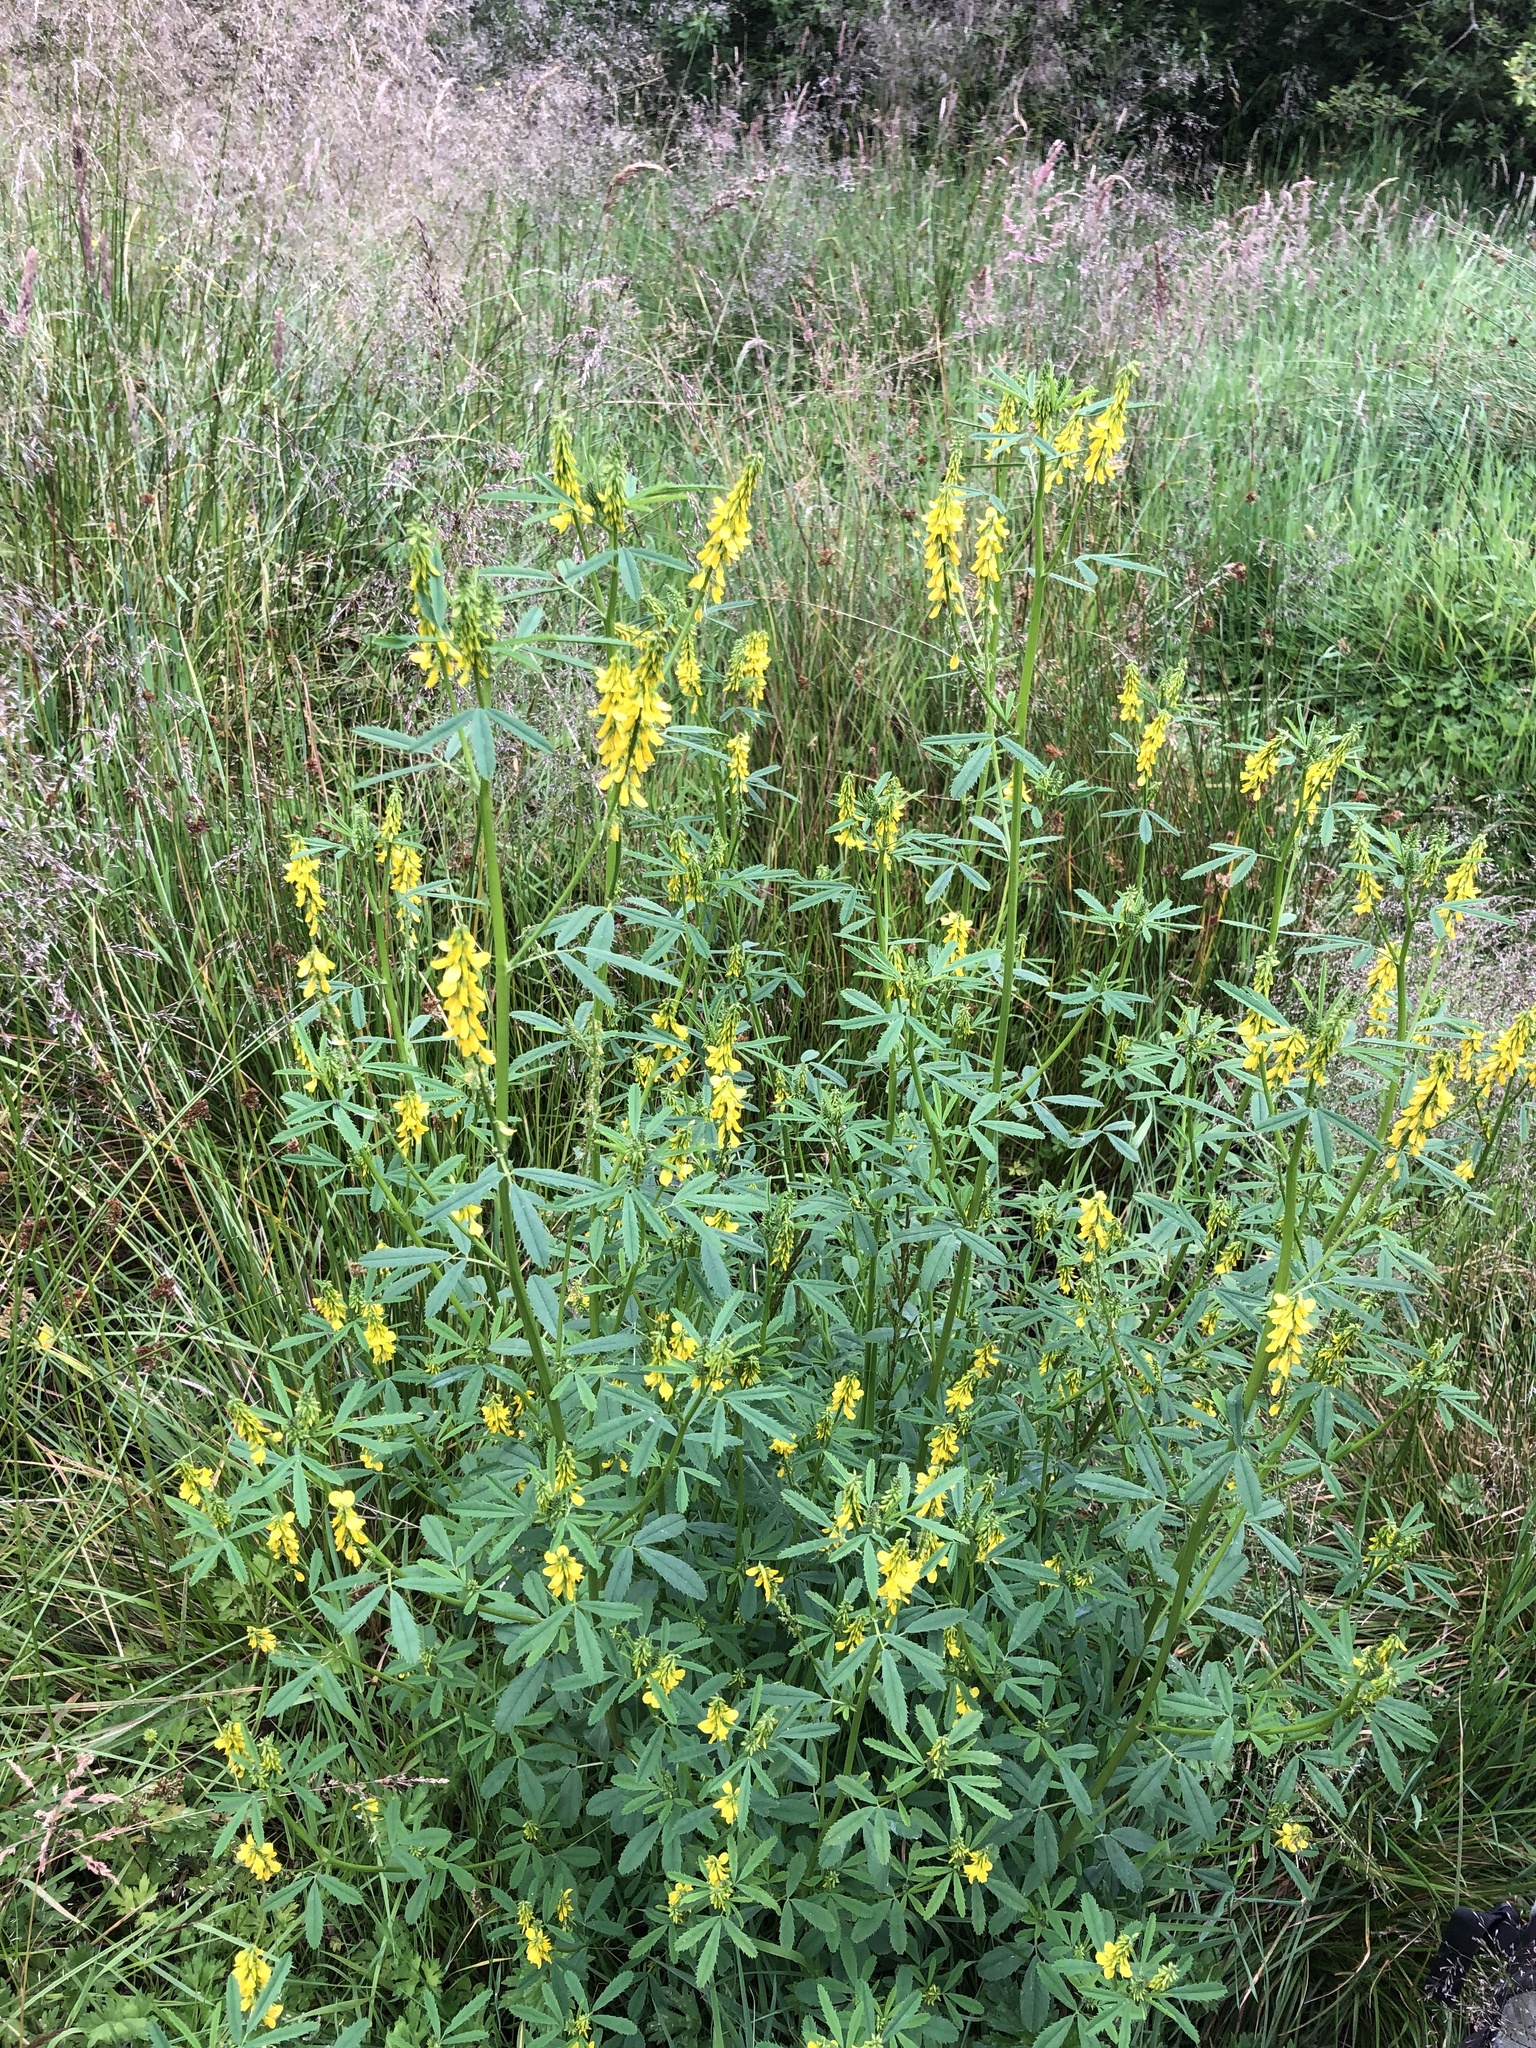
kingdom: Plantae
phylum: Tracheophyta
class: Magnoliopsida
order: Fabales
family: Fabaceae
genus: Melilotus
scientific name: Melilotus officinalis
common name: Sweetclover
